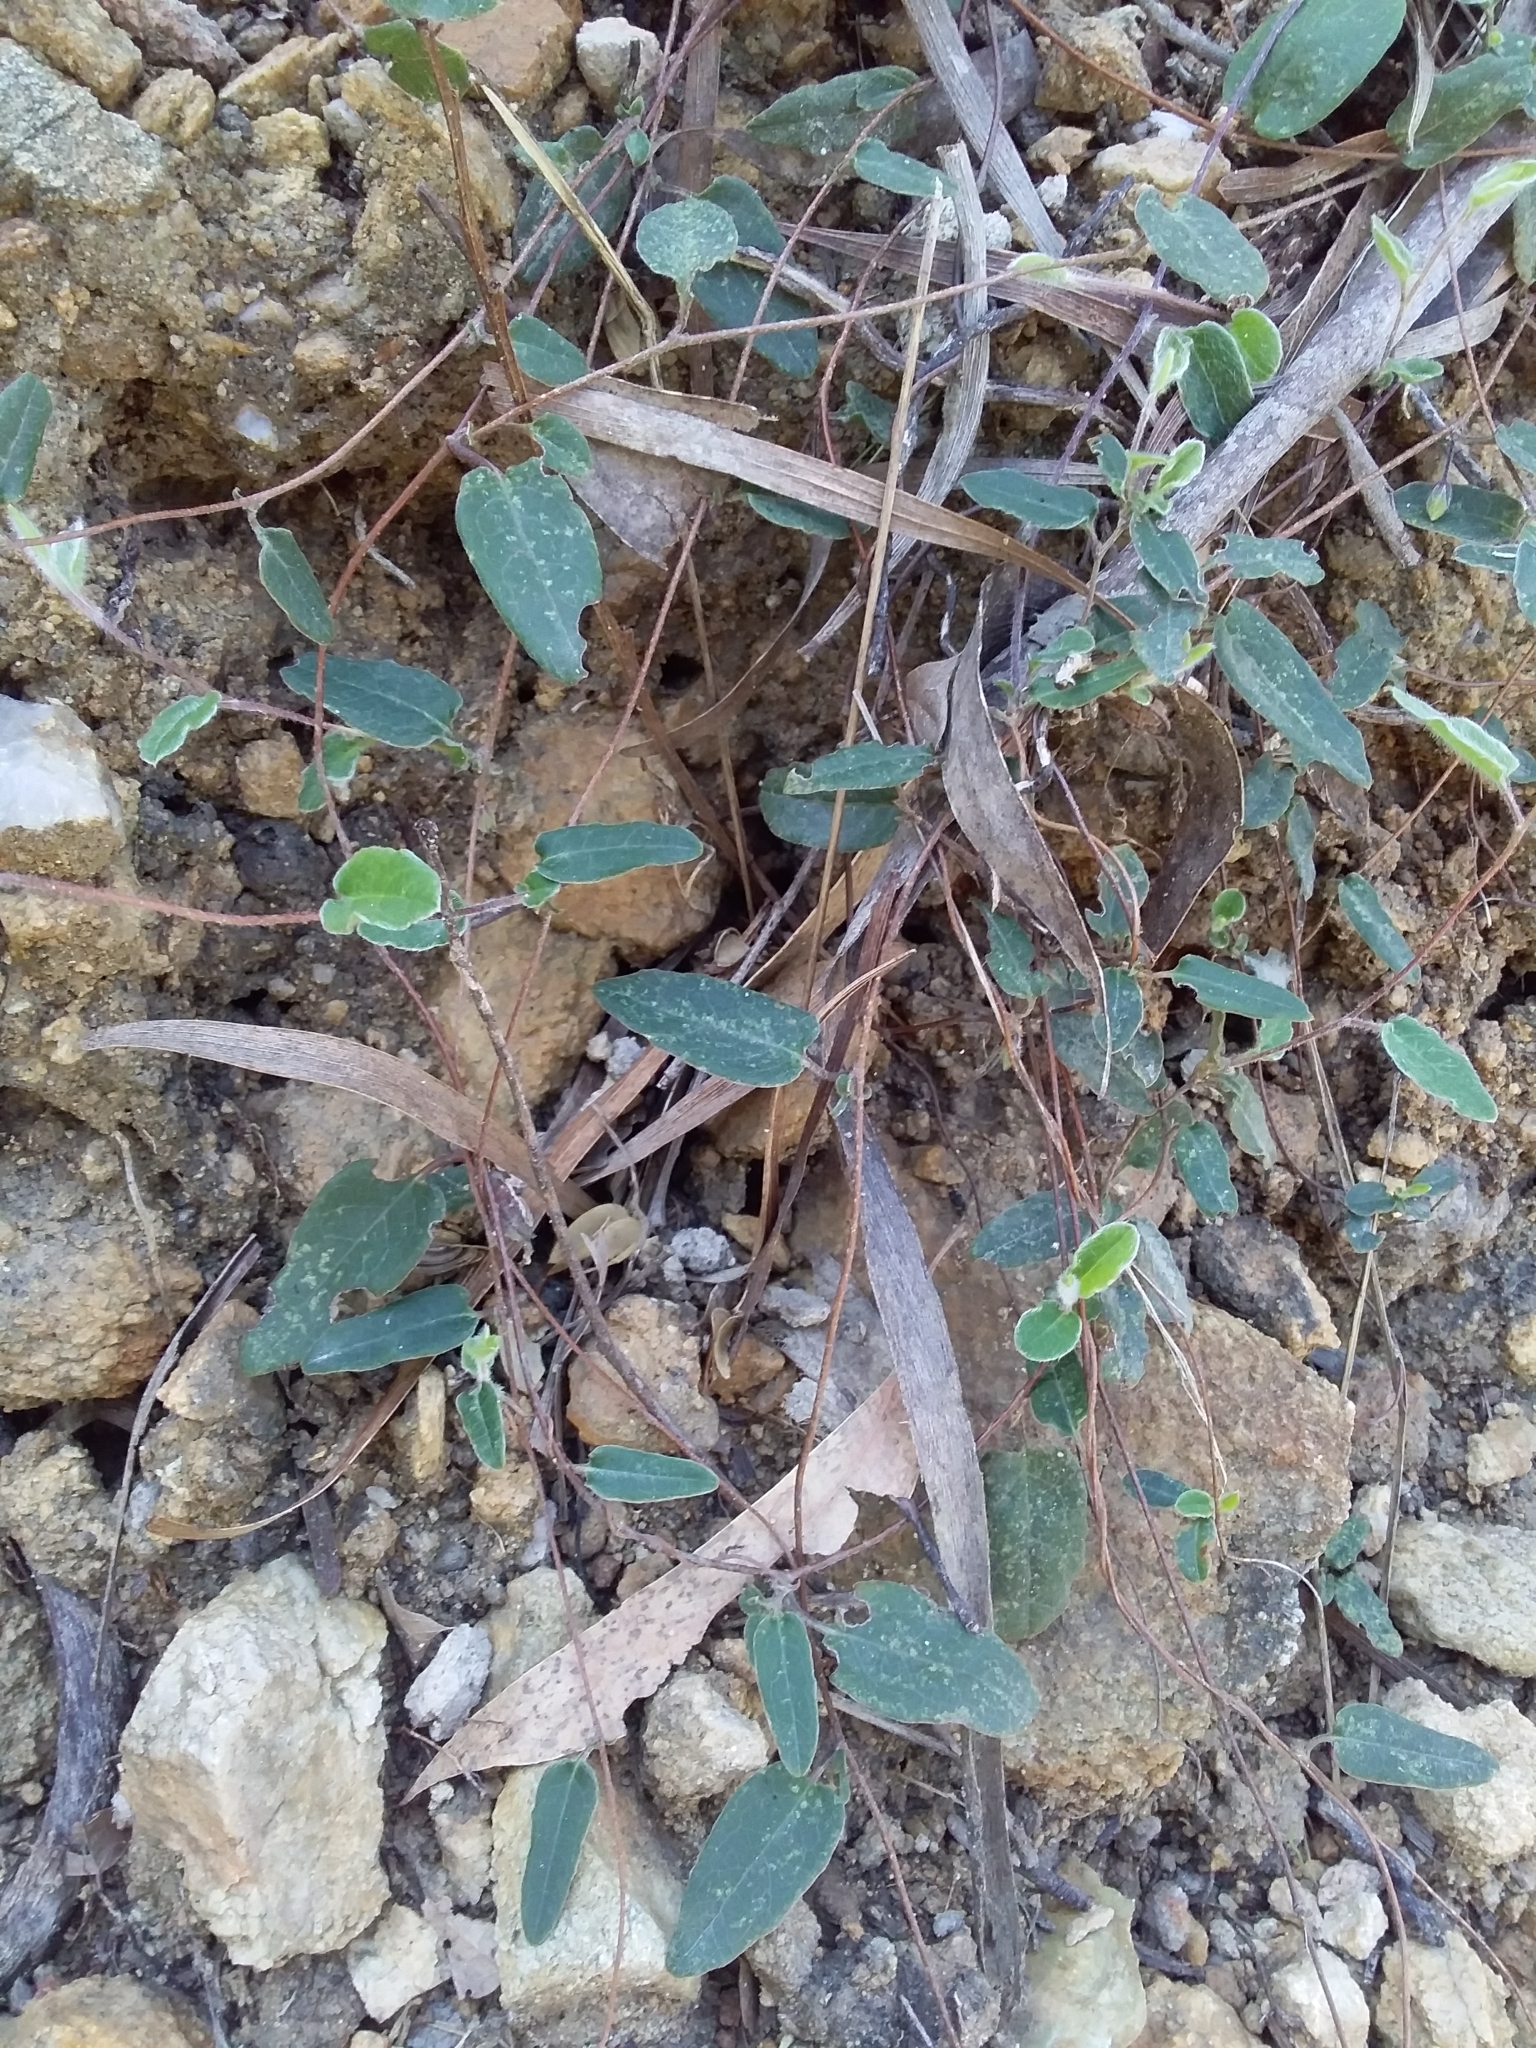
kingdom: Plantae
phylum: Tracheophyta
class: Magnoliopsida
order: Apiales
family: Pittosporaceae
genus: Marianthus
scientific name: Marianthus bignoniaceus
